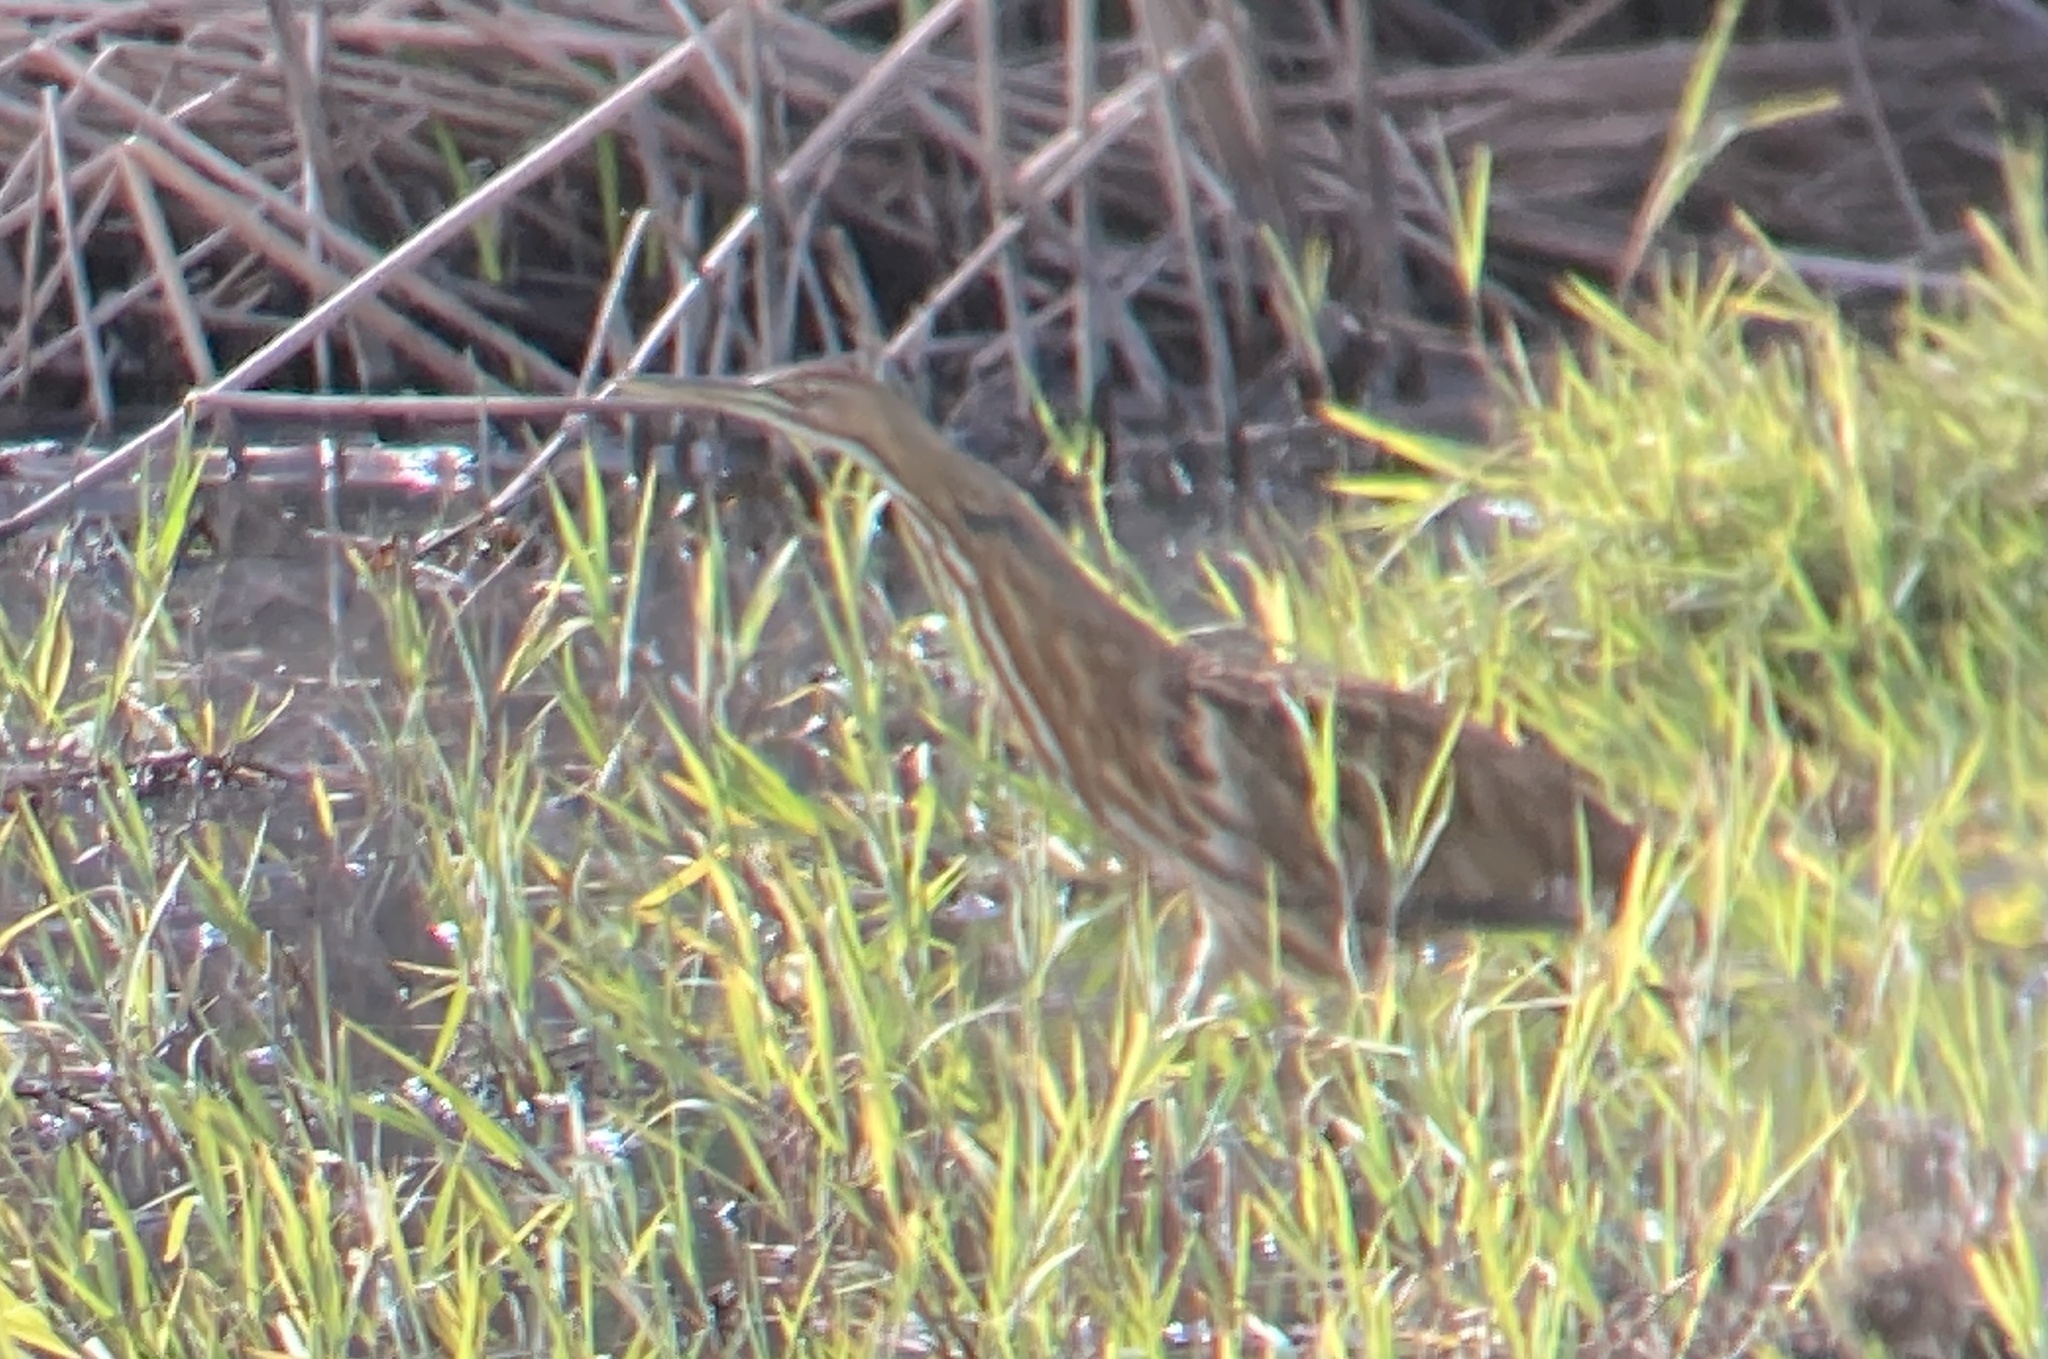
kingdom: Animalia
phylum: Chordata
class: Aves
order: Pelecaniformes
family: Ardeidae
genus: Botaurus
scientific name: Botaurus lentiginosus
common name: American bittern
